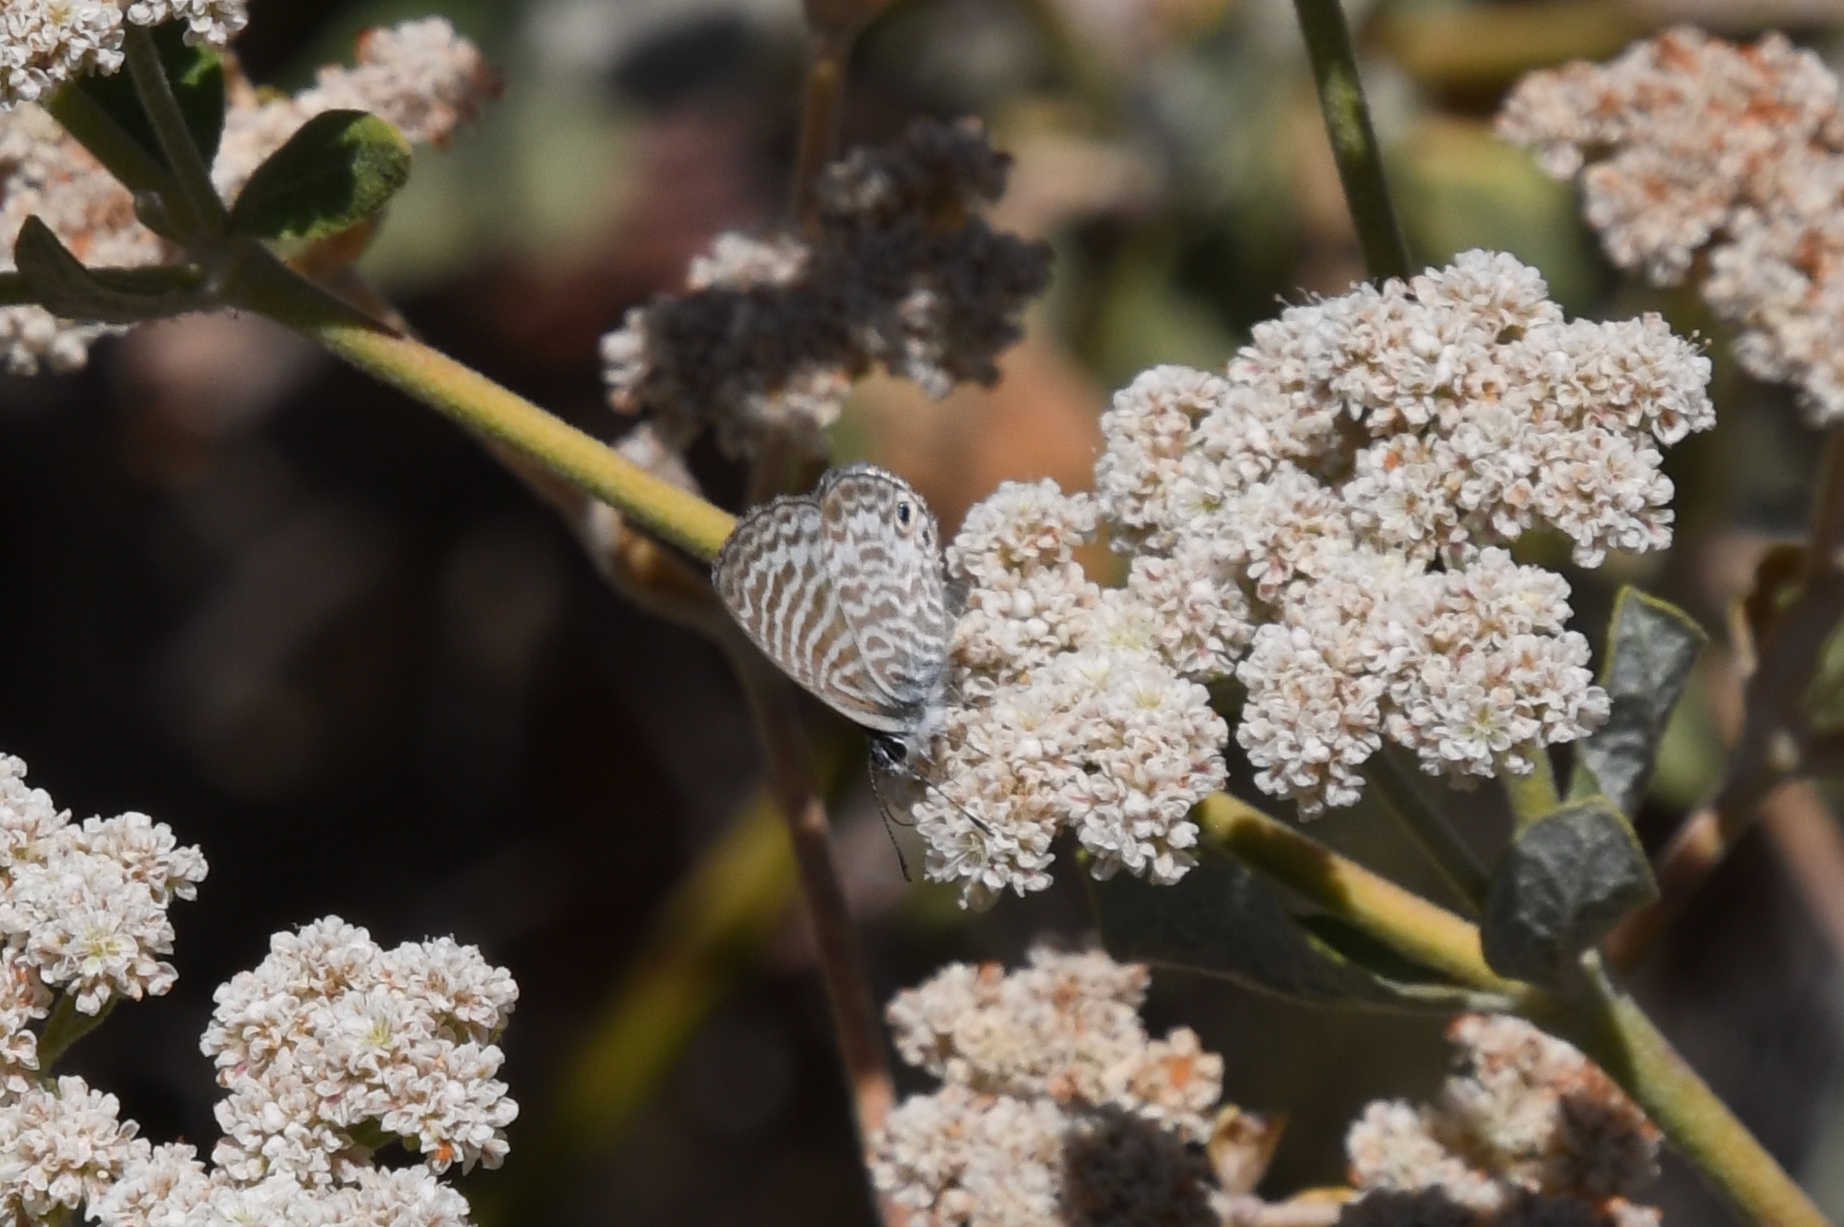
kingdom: Animalia
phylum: Arthropoda
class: Insecta
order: Lepidoptera
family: Lycaenidae
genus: Leptotes
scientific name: Leptotes marina
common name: Marine blue
